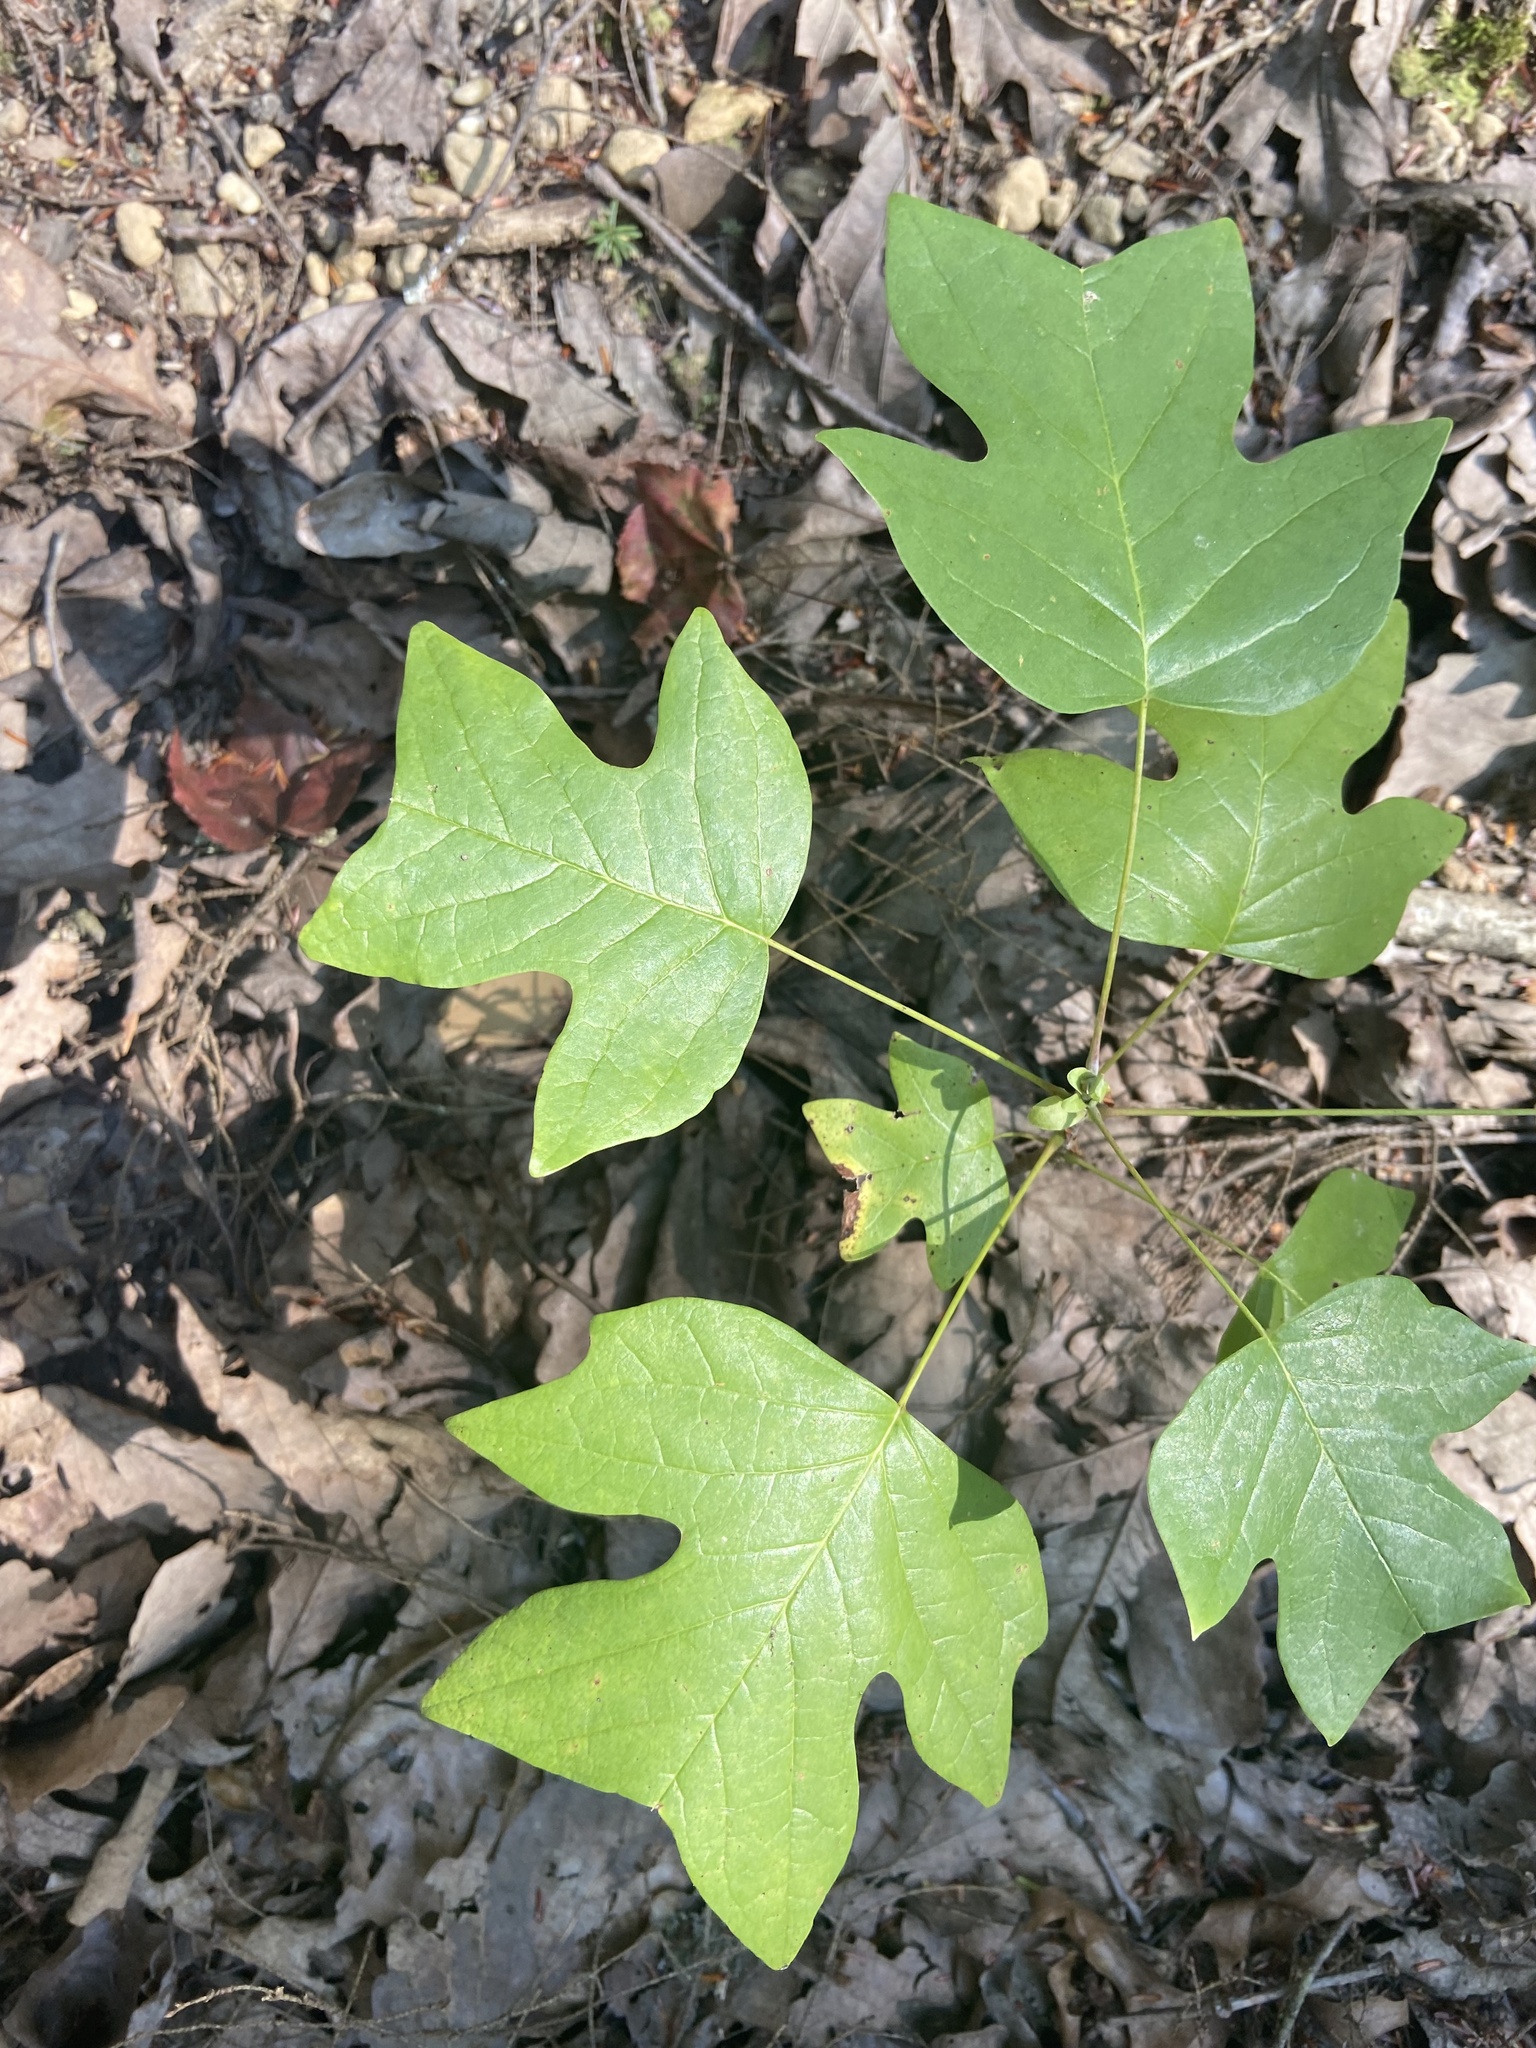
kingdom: Plantae
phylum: Tracheophyta
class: Magnoliopsida
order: Magnoliales
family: Magnoliaceae
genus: Liriodendron
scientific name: Liriodendron tulipifera
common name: Tulip tree
